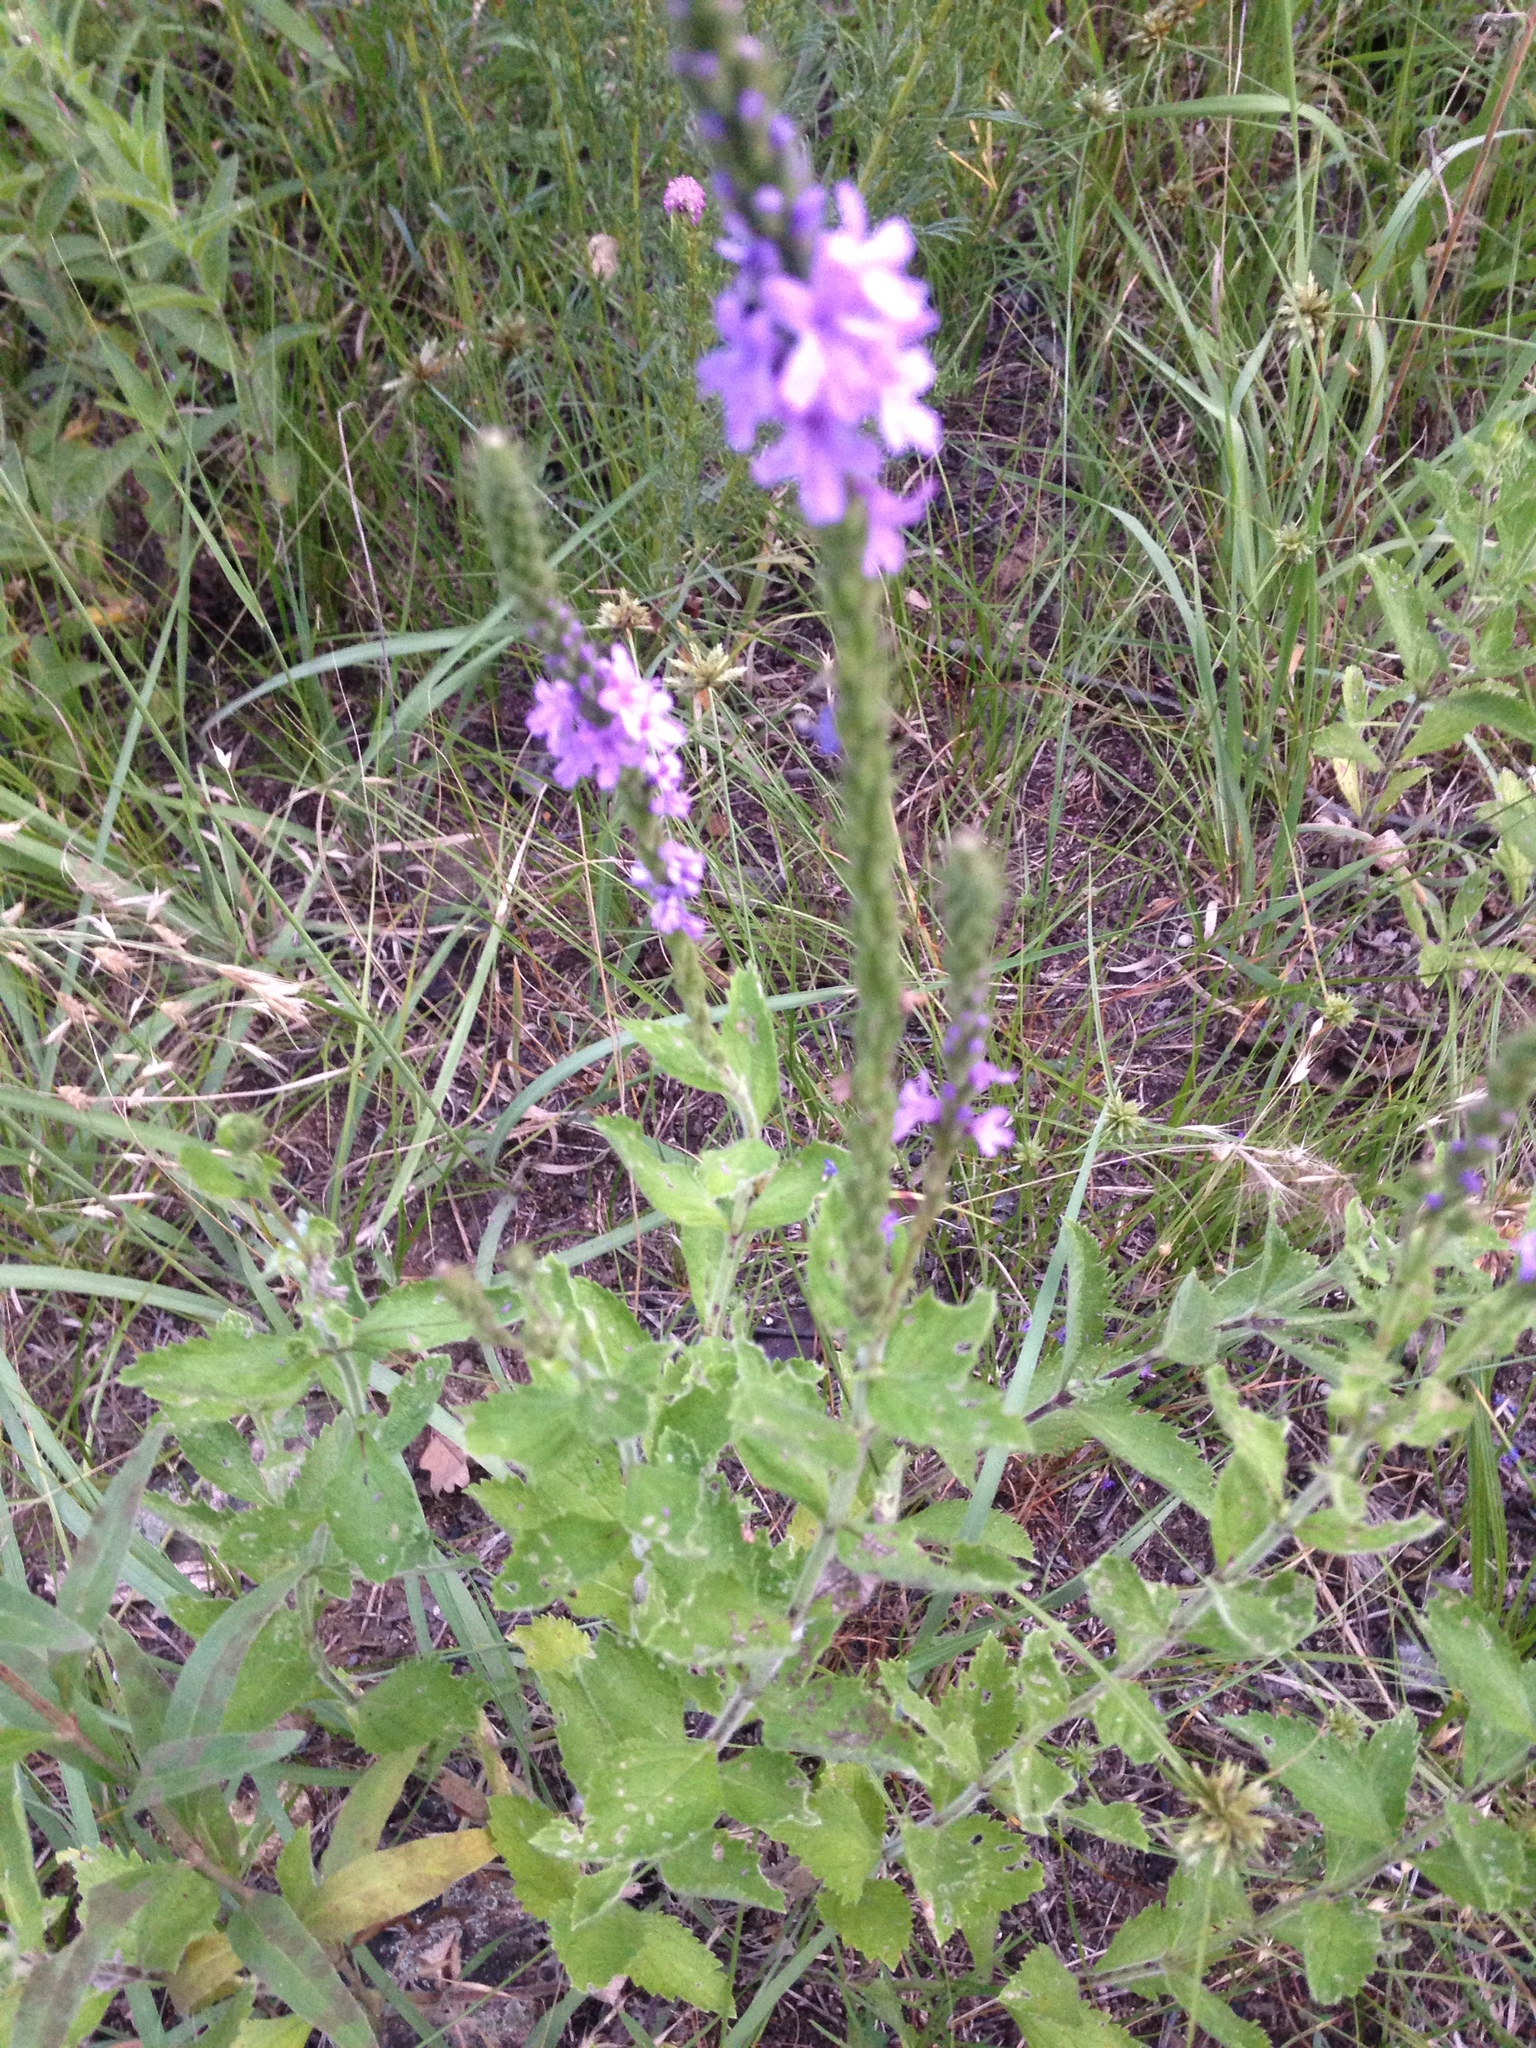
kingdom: Plantae
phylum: Tracheophyta
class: Magnoliopsida
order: Lamiales
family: Verbenaceae
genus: Verbena
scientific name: Verbena stricta
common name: Hoary vervain
